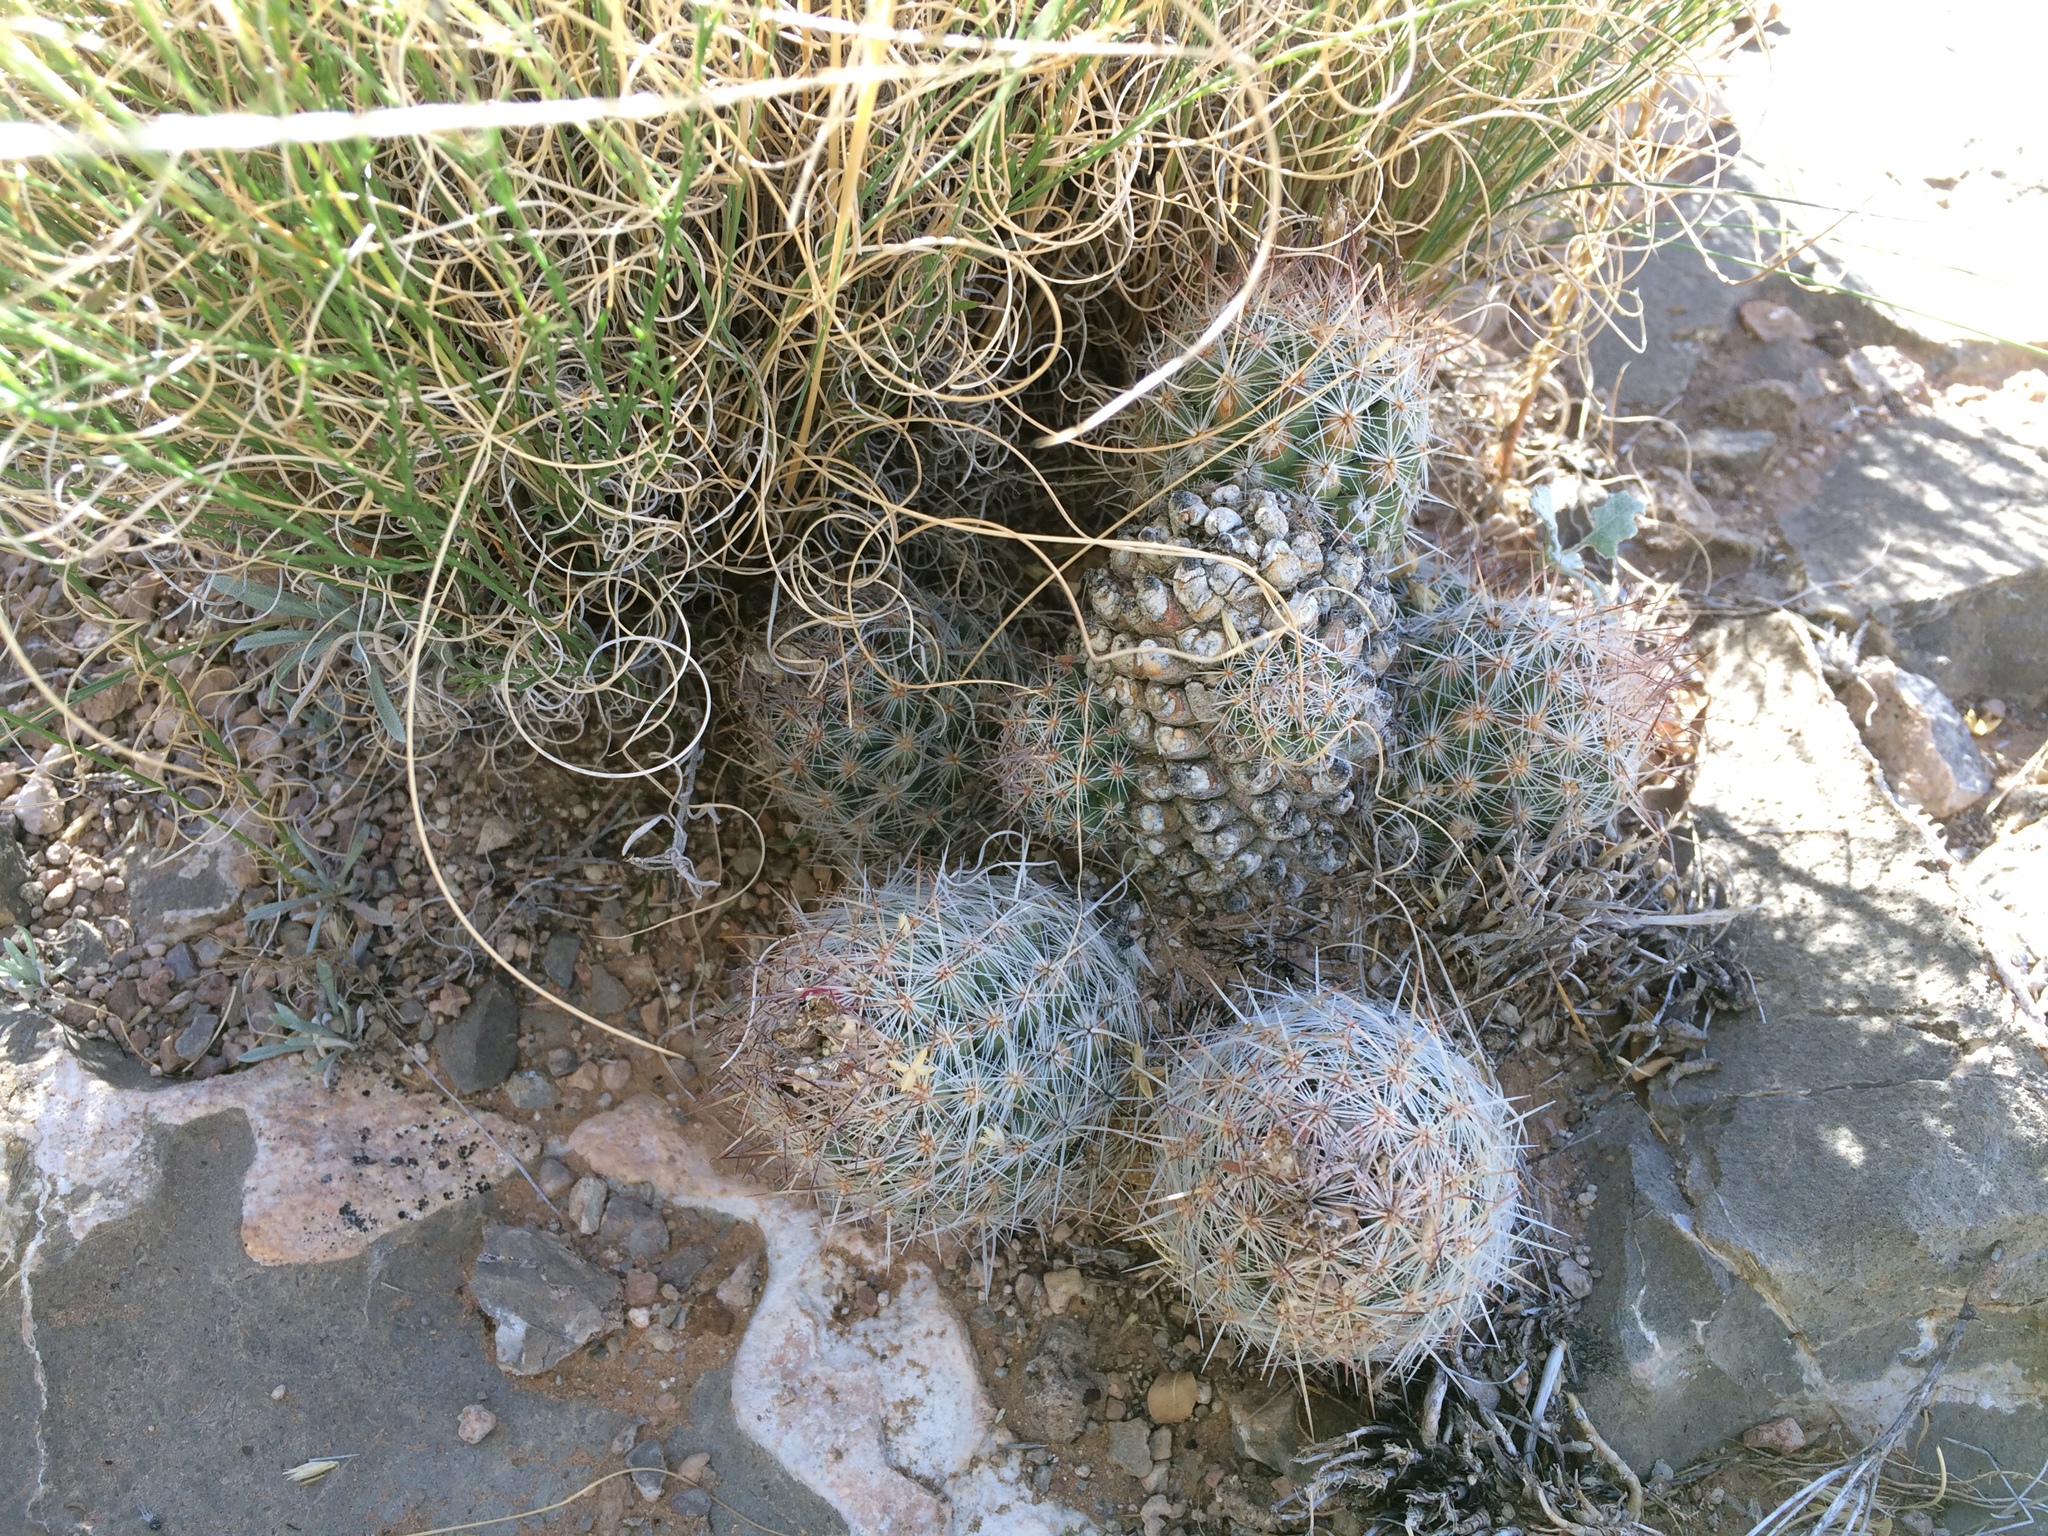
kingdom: Plantae
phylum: Tracheophyta
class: Magnoliopsida
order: Caryophyllales
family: Cactaceae
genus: Pelecyphora
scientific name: Pelecyphora tuberculosa
